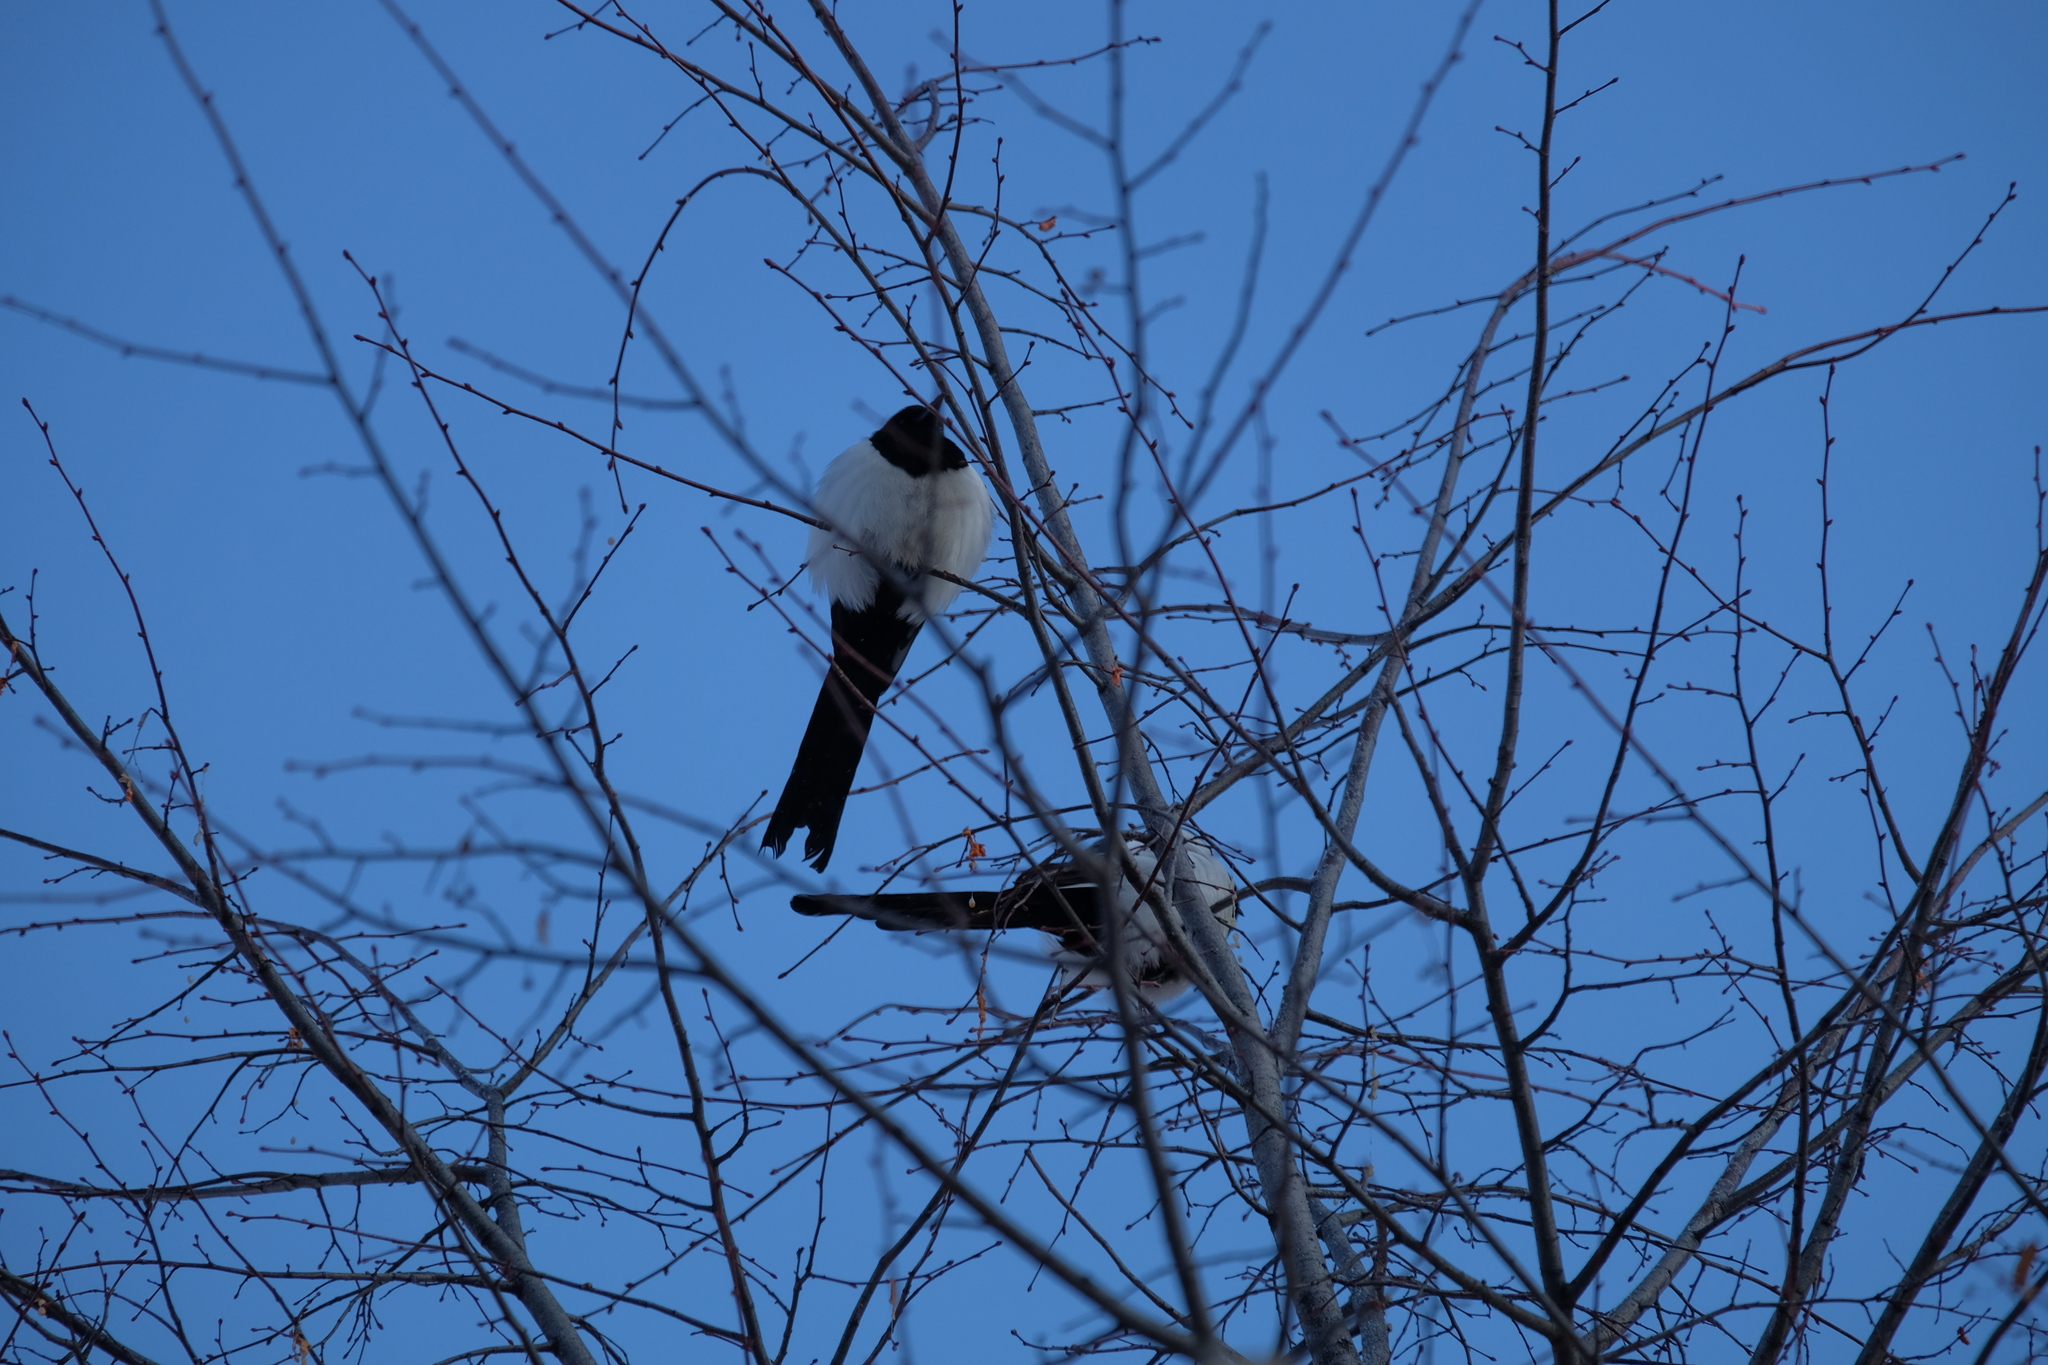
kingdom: Animalia
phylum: Chordata
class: Aves
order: Passeriformes
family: Corvidae
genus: Pica
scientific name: Pica pica
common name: Eurasian magpie
